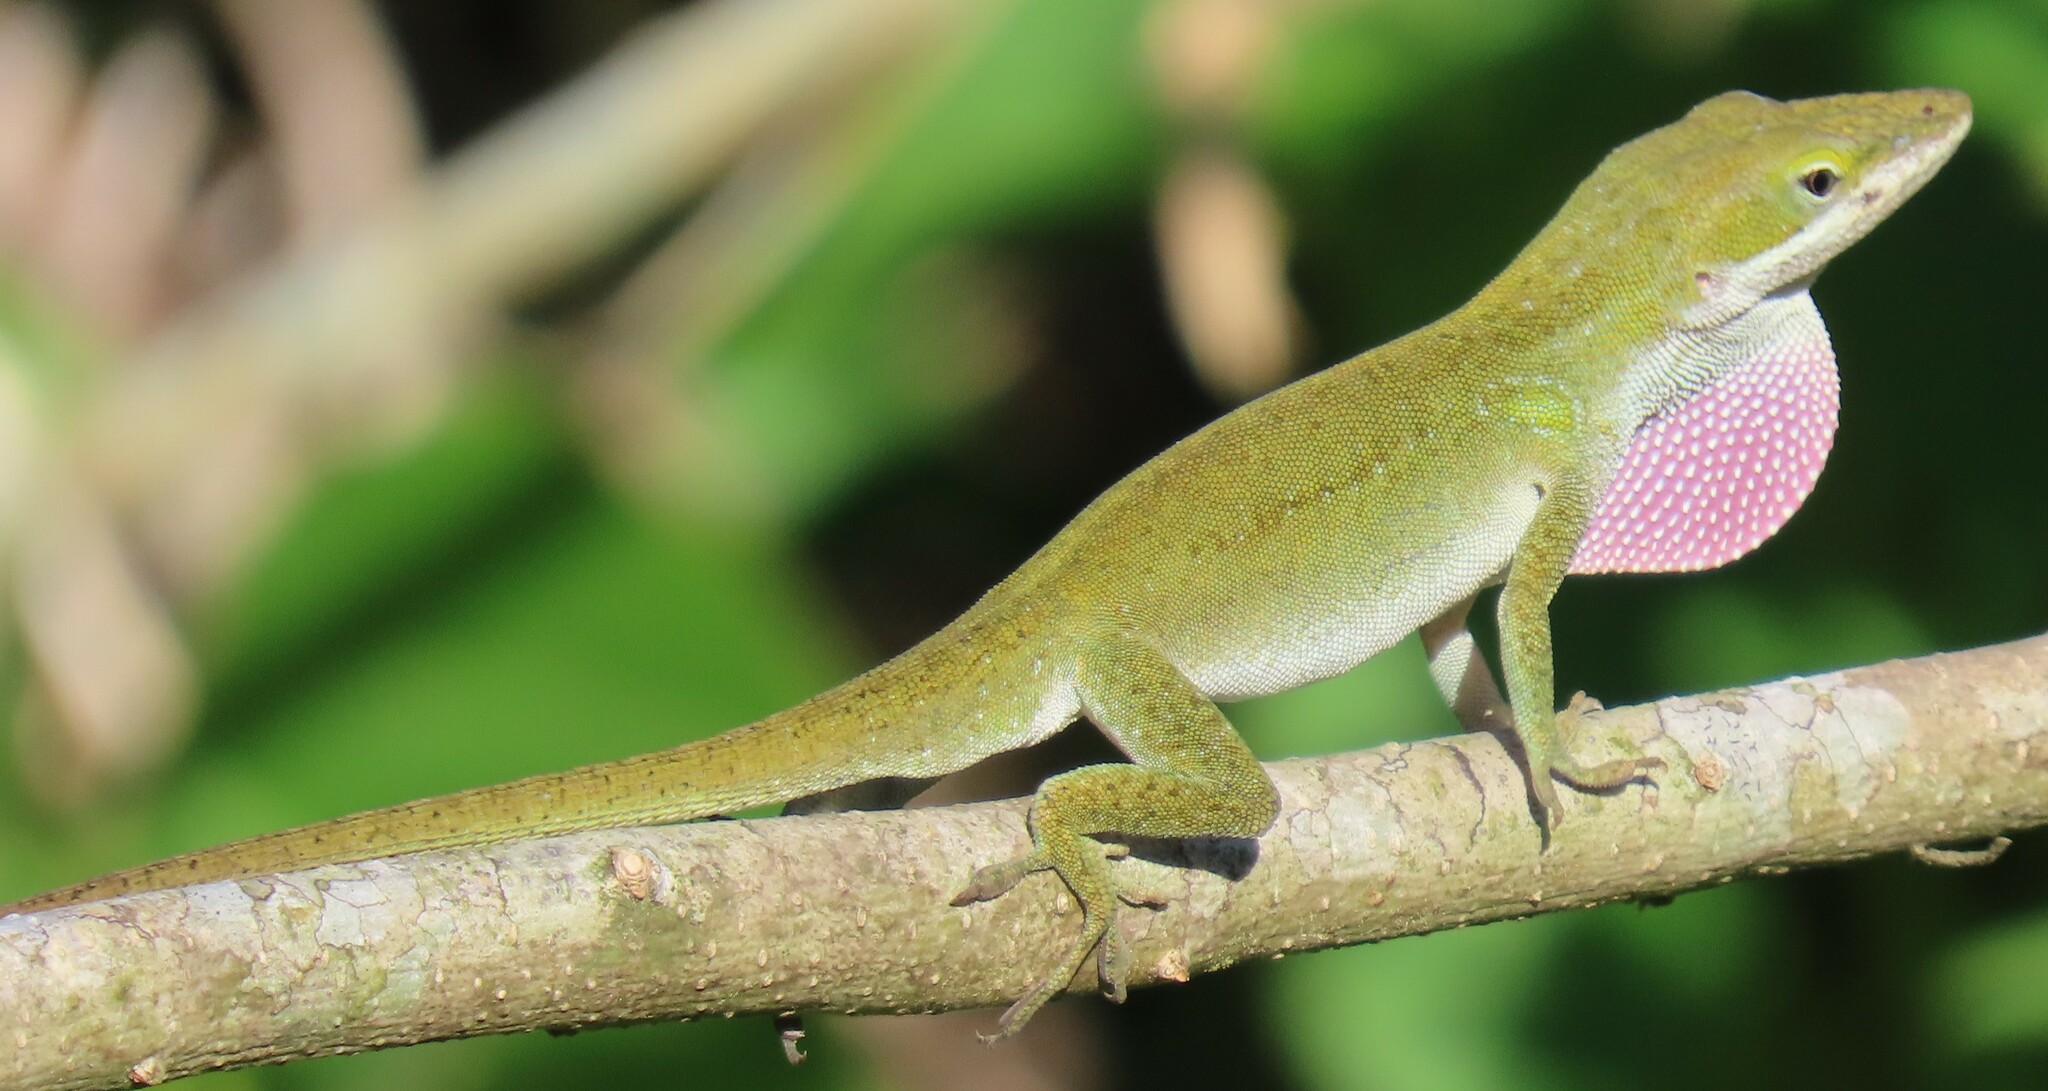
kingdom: Animalia
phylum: Chordata
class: Squamata
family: Dactyloidae
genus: Anolis
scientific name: Anolis carolinensis
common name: Green anole
